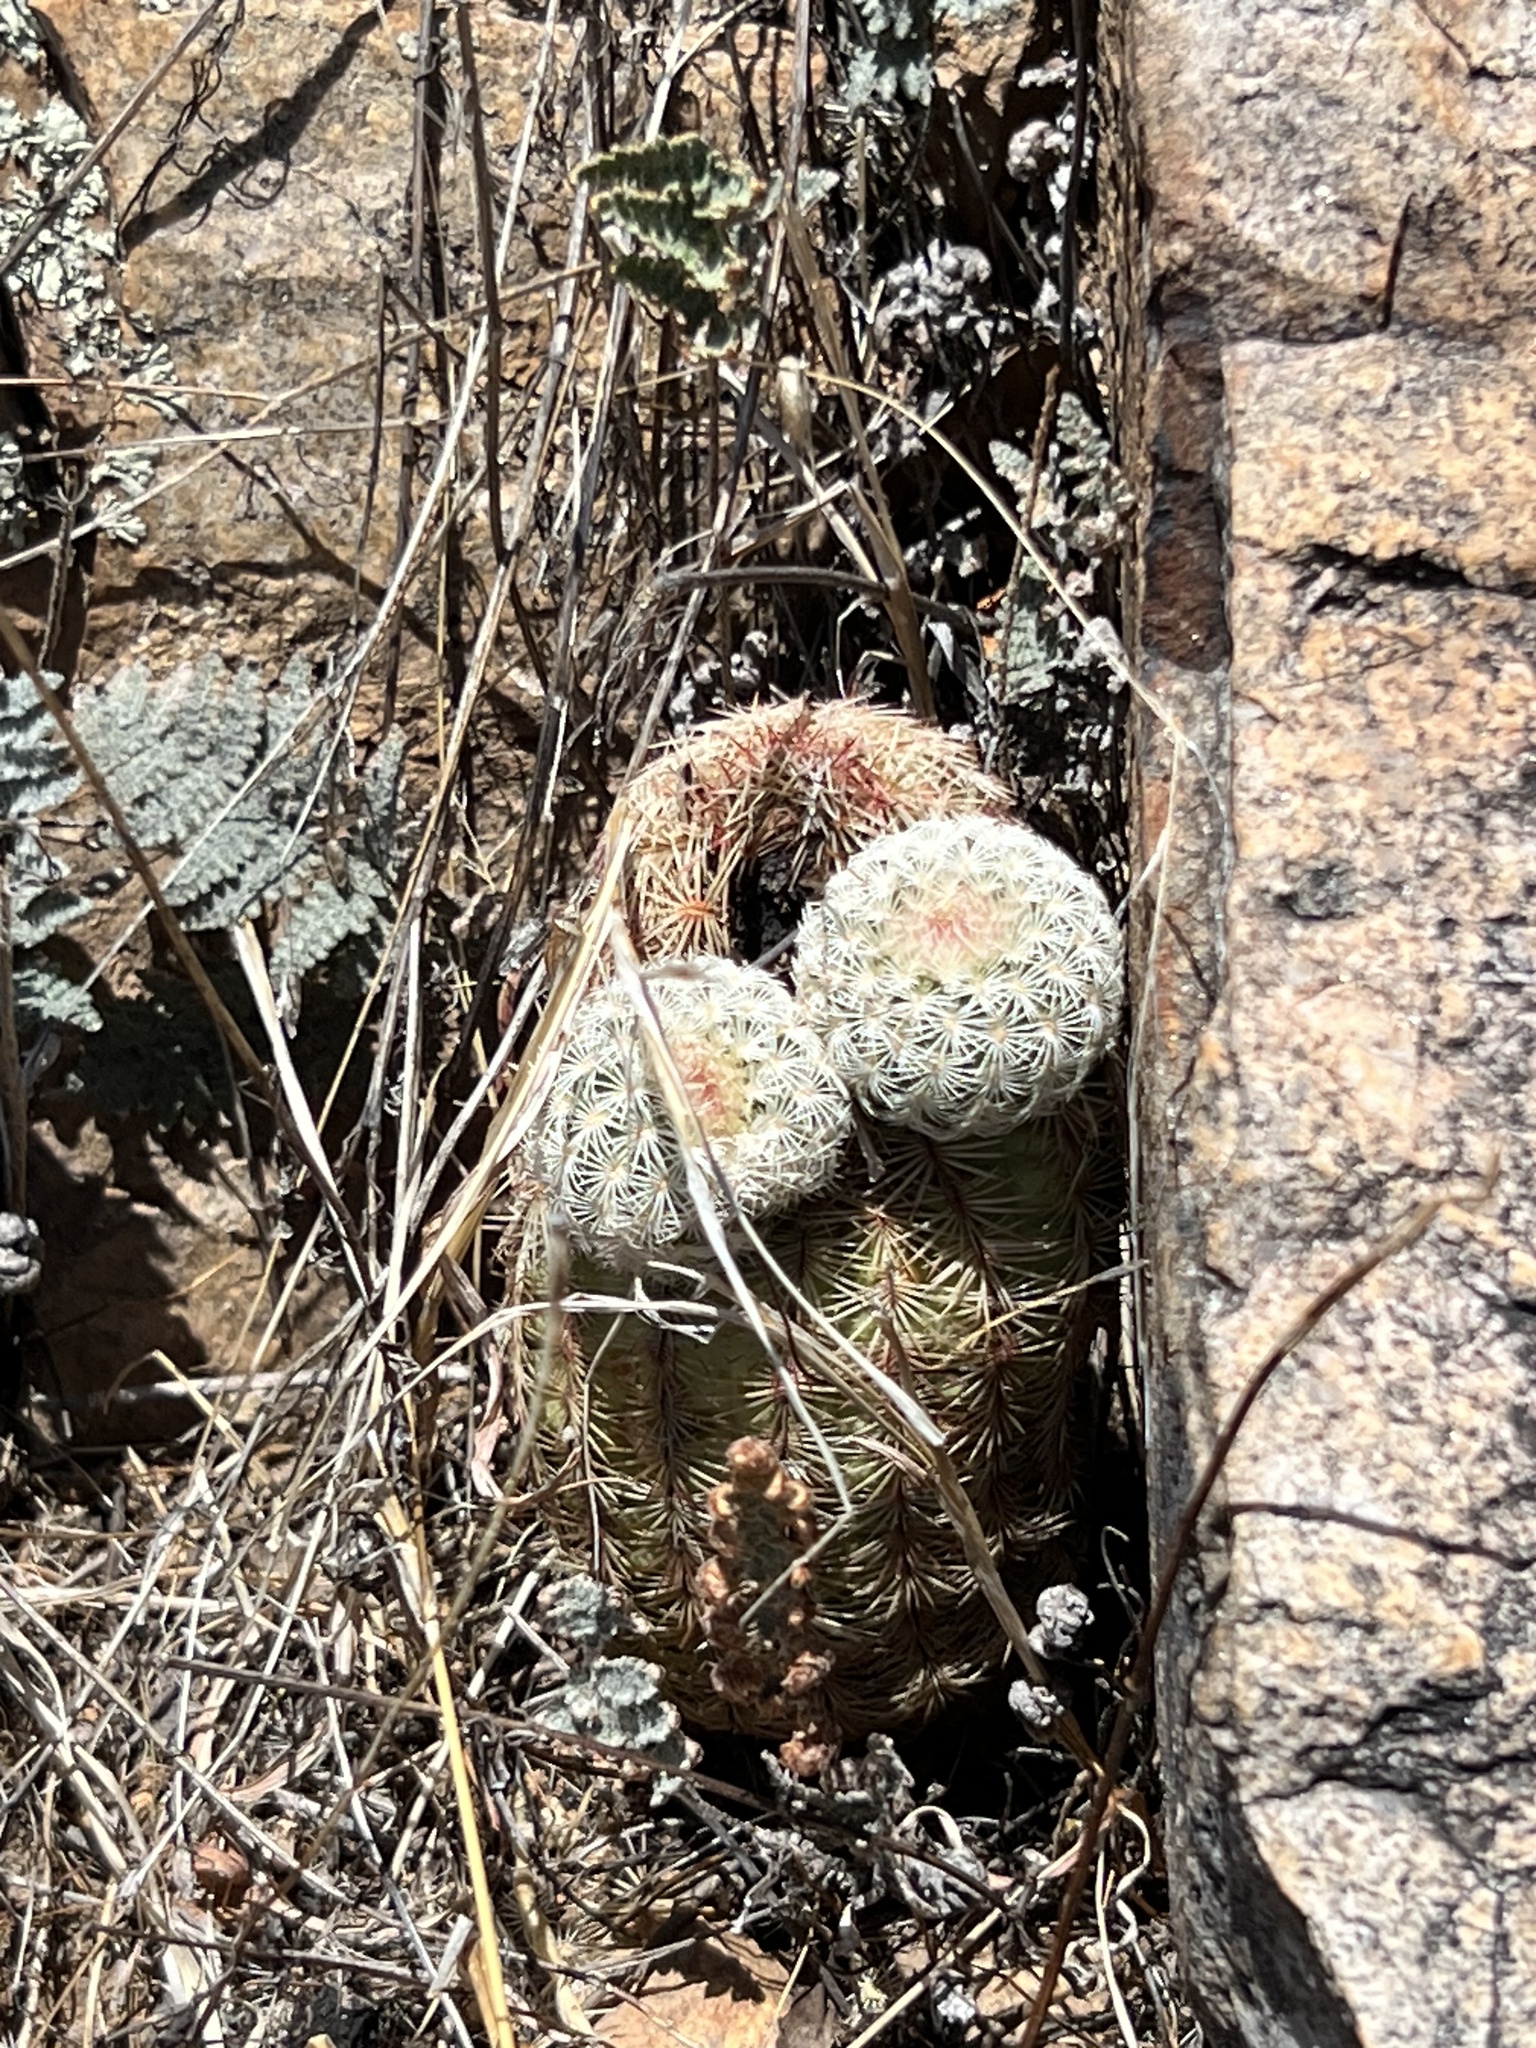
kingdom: Plantae
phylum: Tracheophyta
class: Magnoliopsida
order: Caryophyllales
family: Cactaceae
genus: Echinocereus
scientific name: Echinocereus rigidissimus
